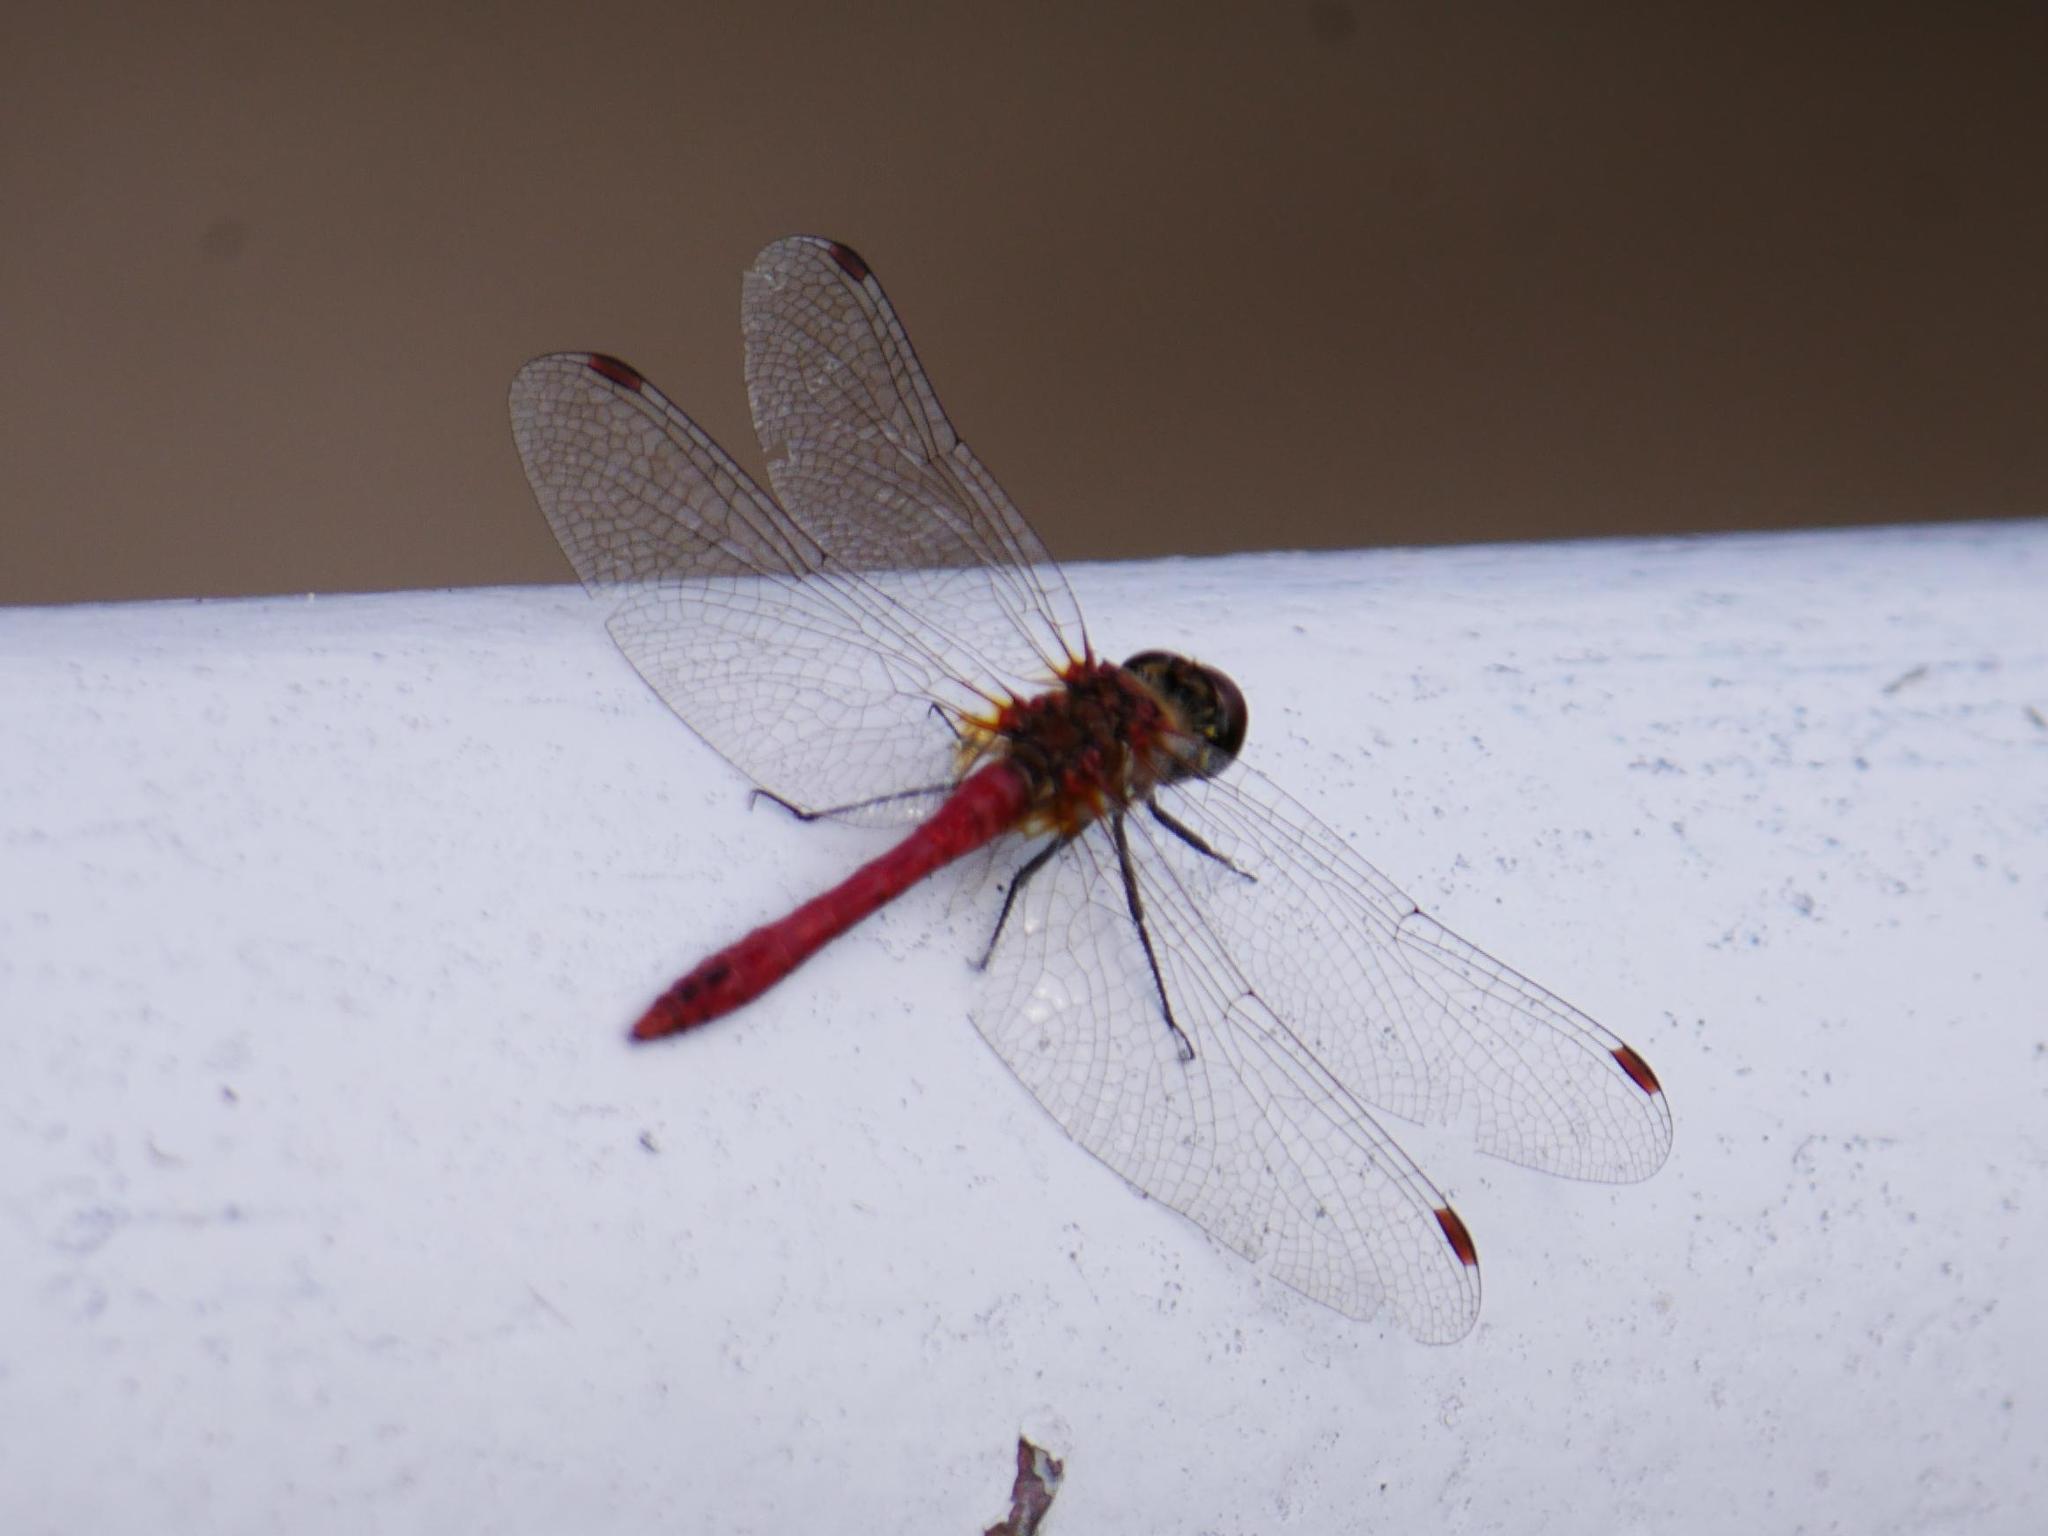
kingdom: Animalia
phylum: Arthropoda
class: Insecta
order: Odonata
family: Libellulidae
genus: Sympetrum
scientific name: Sympetrum sanguineum
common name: Ruddy darter
